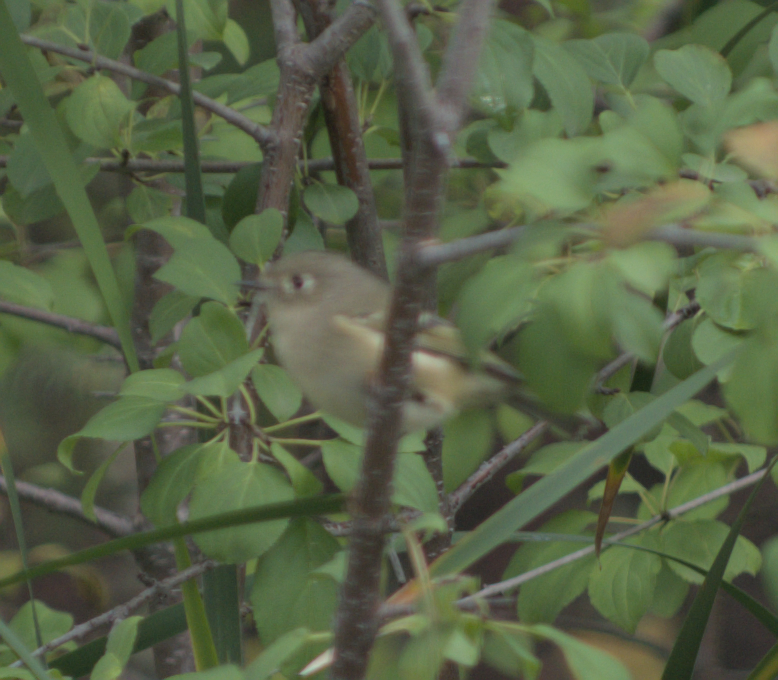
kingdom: Animalia
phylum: Chordata
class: Aves
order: Passeriformes
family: Regulidae
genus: Regulus
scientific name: Regulus calendula
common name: Ruby-crowned kinglet
